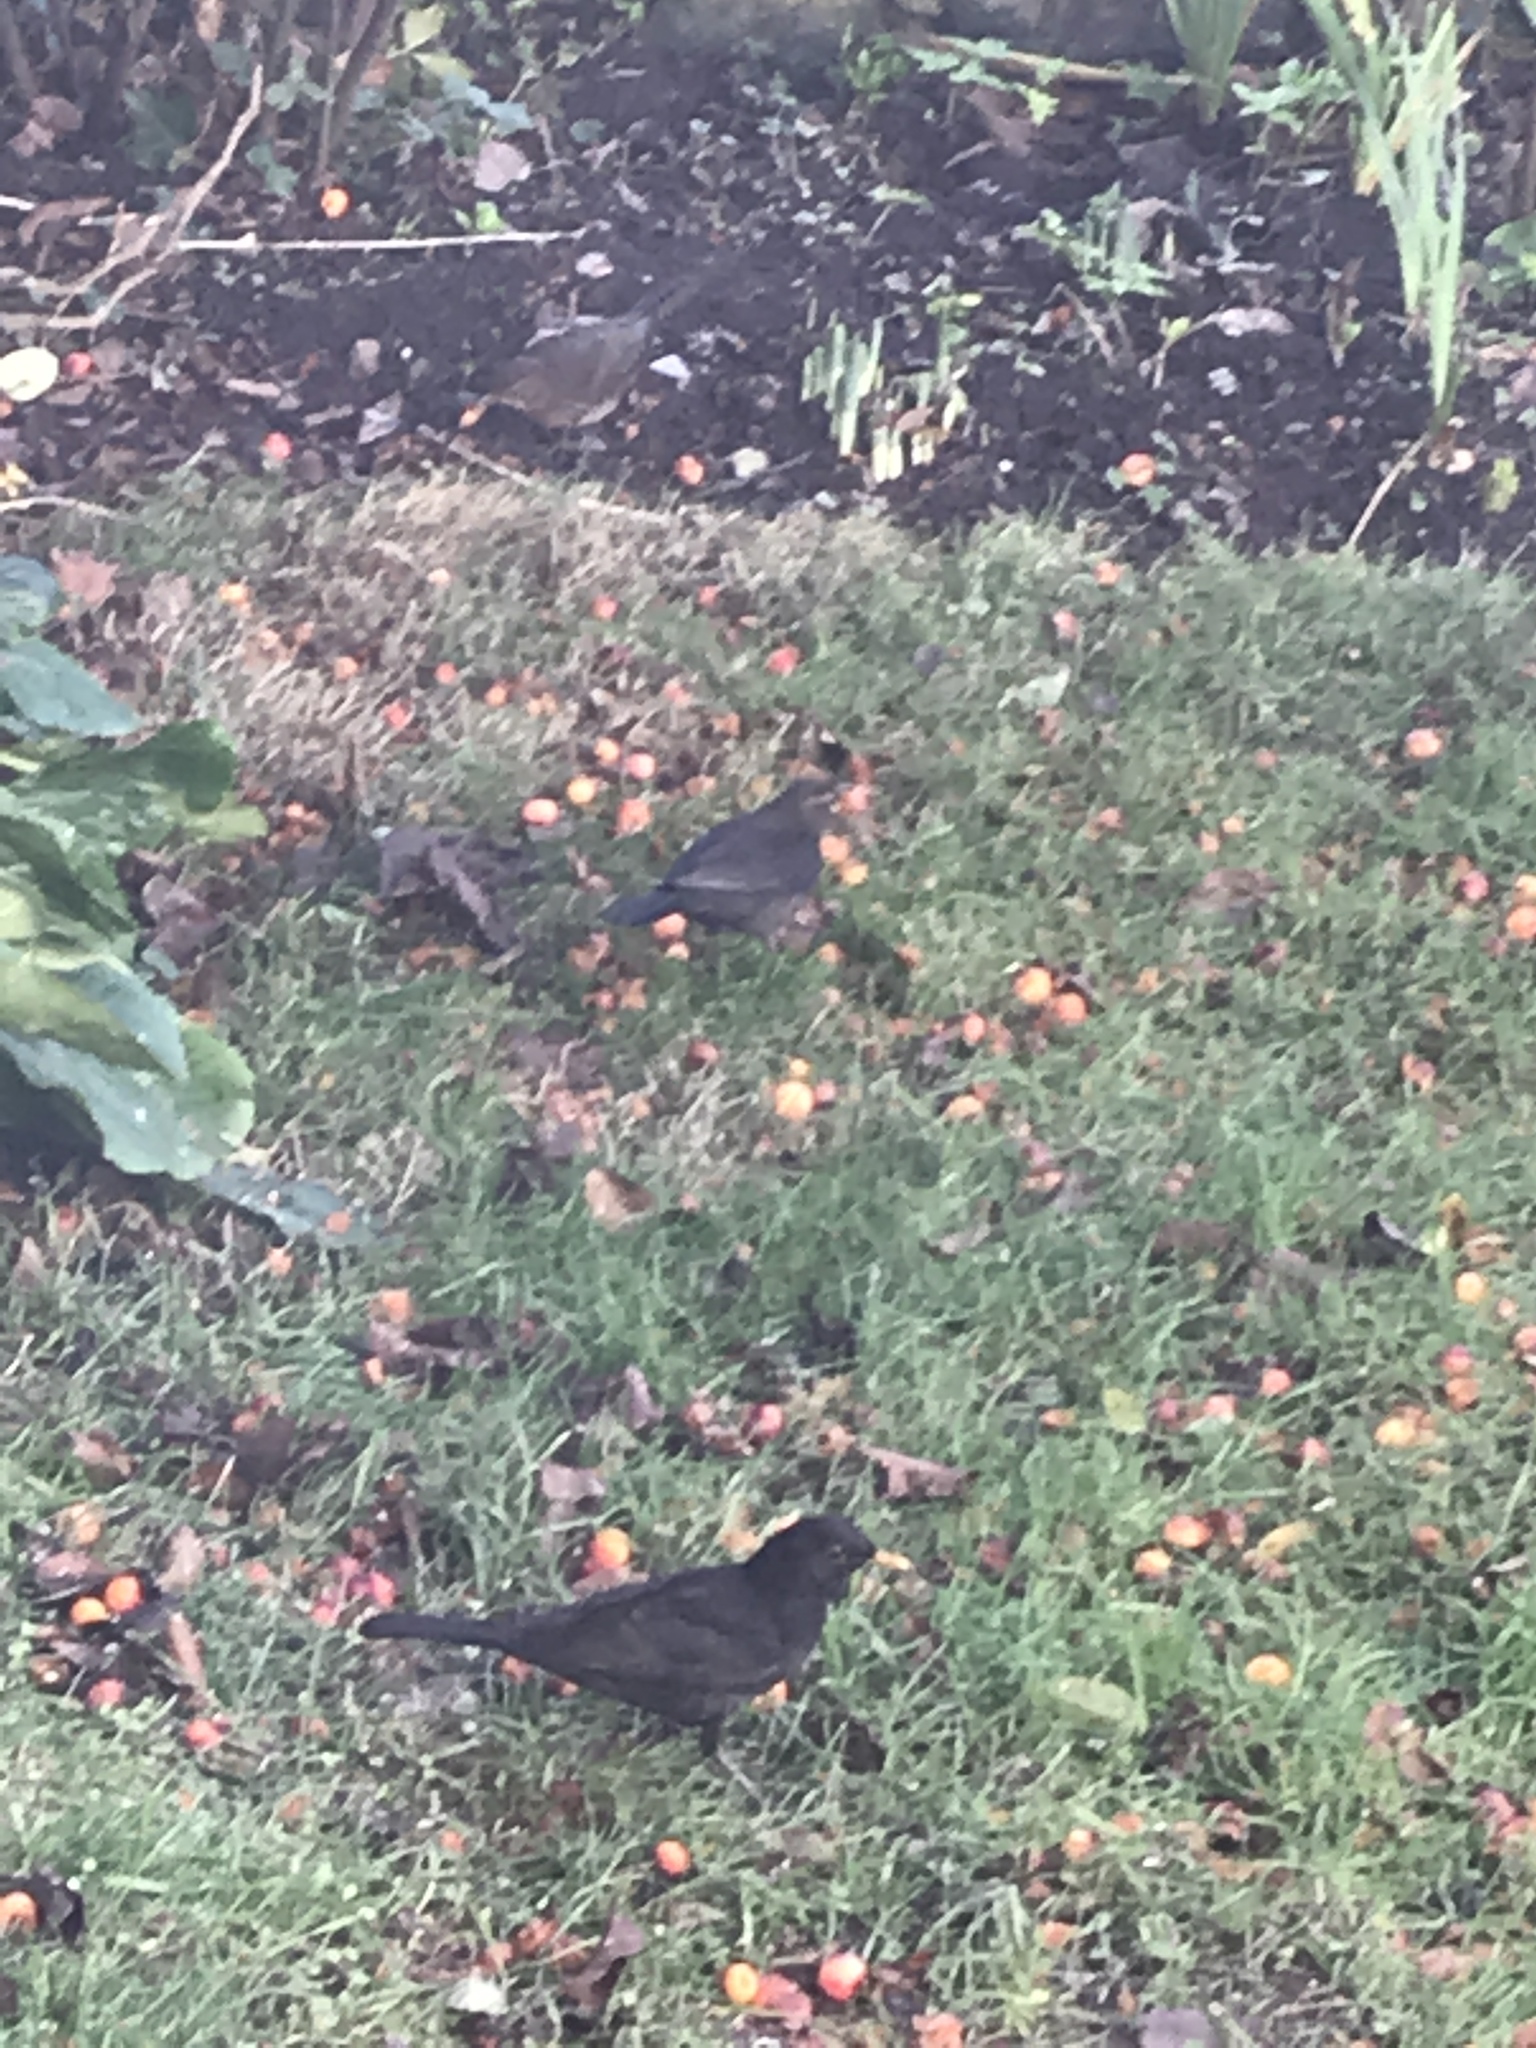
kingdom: Animalia
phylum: Chordata
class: Aves
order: Passeriformes
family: Turdidae
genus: Turdus
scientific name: Turdus merula
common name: Common blackbird
